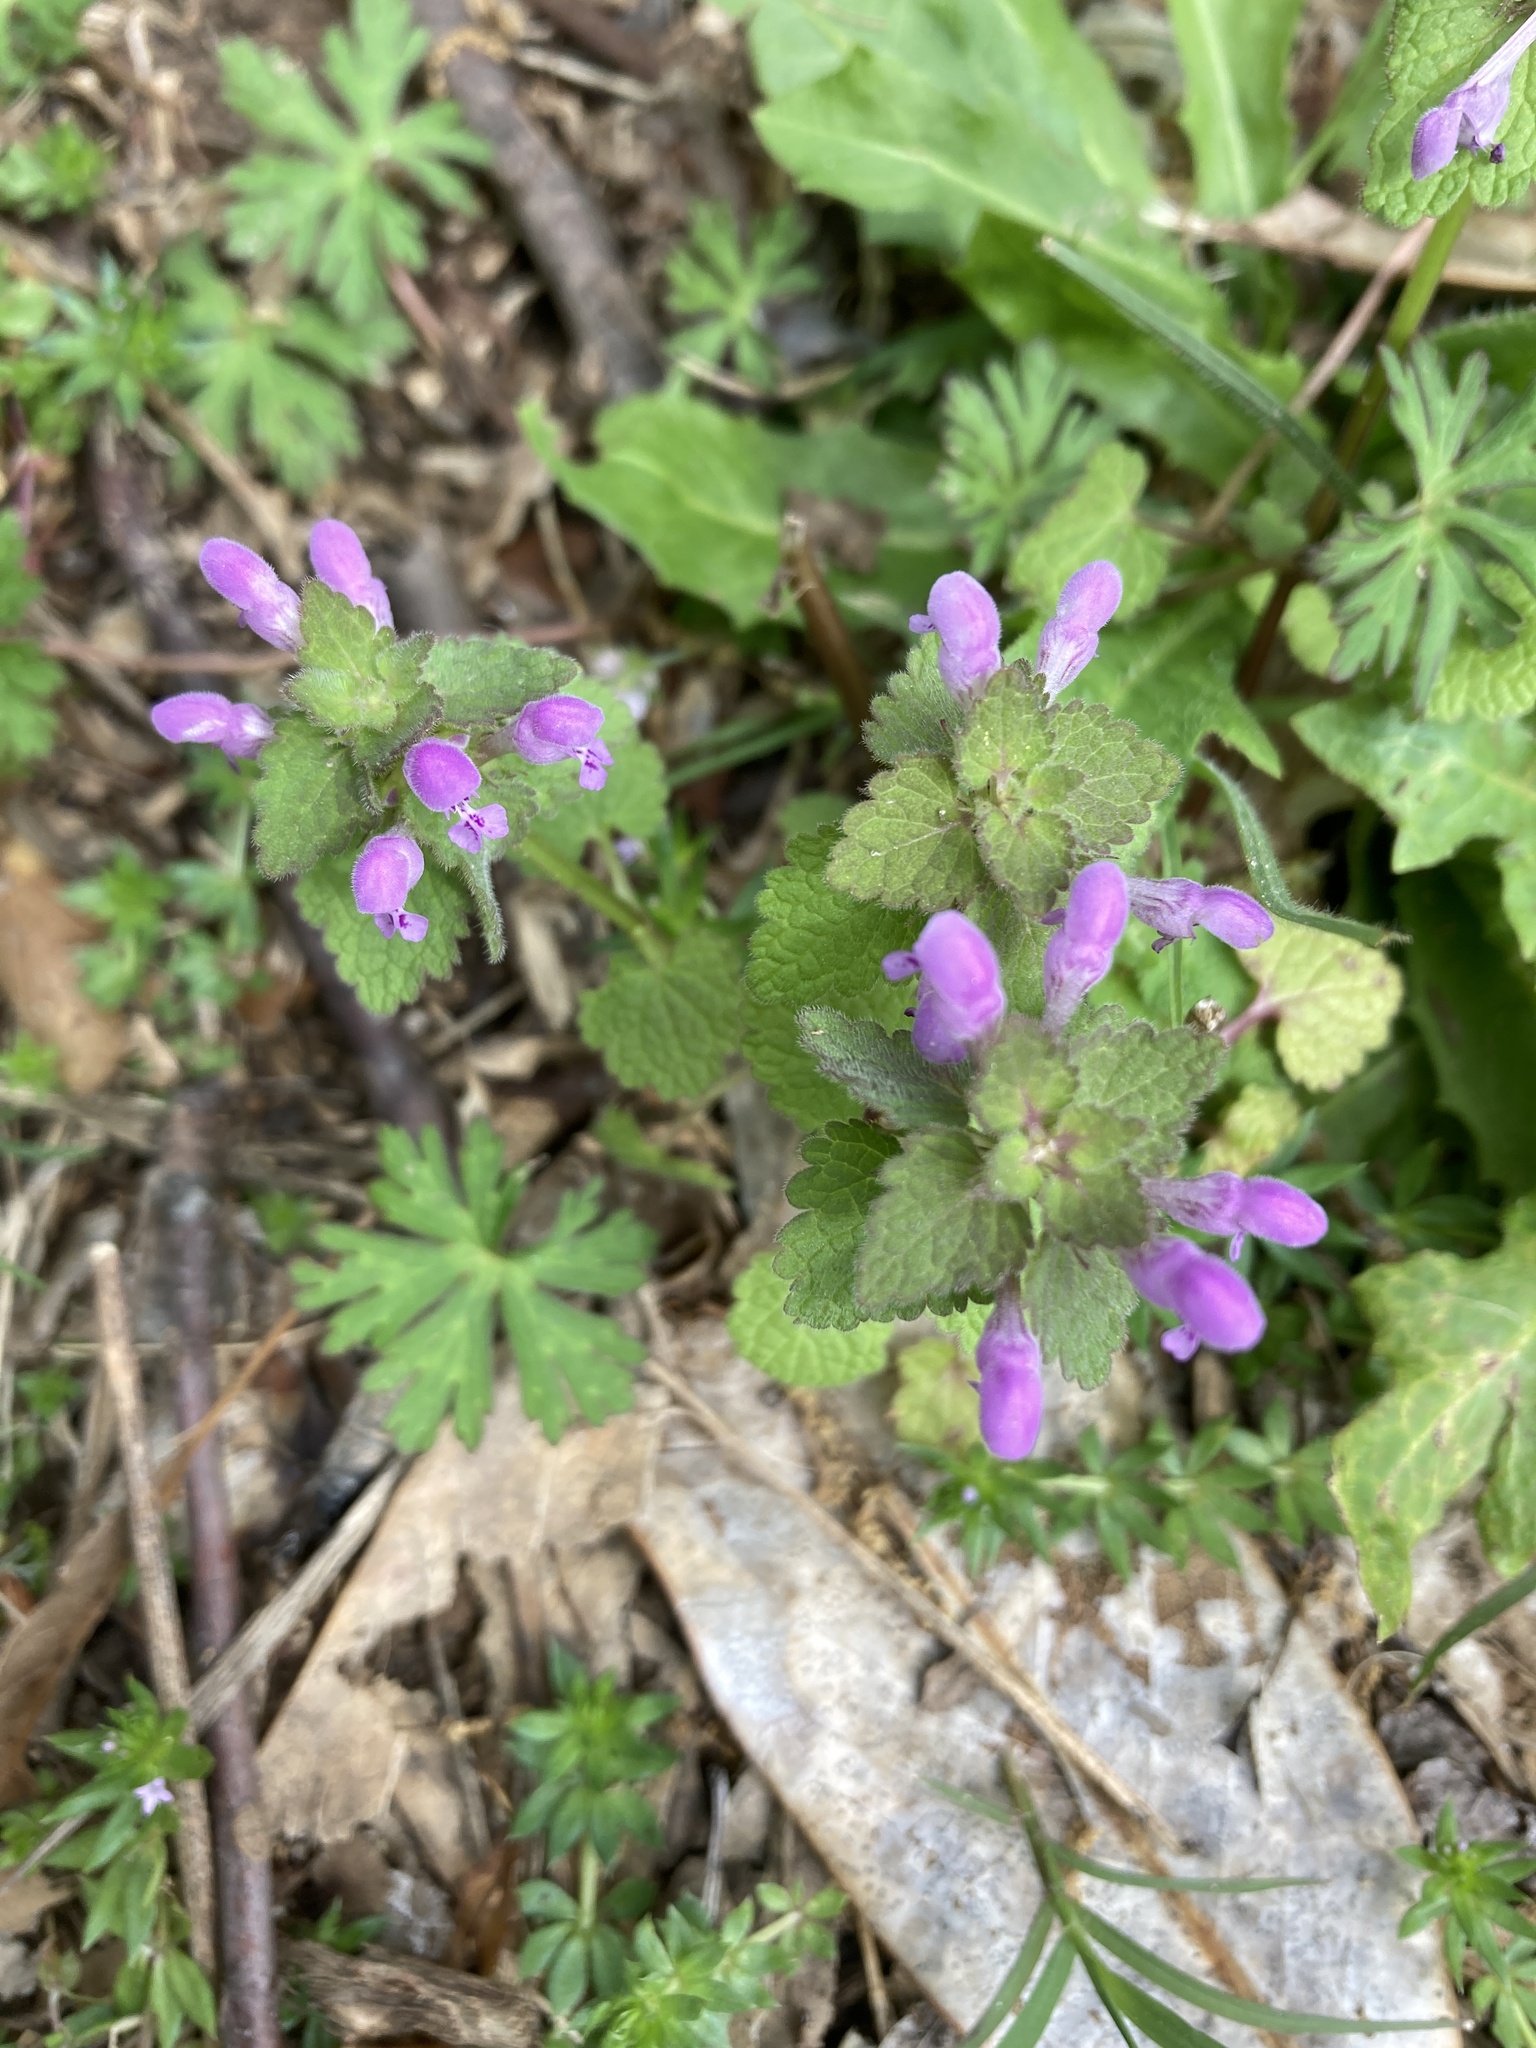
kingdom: Plantae
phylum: Tracheophyta
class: Magnoliopsida
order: Lamiales
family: Lamiaceae
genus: Lamium
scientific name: Lamium purpureum
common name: Red dead-nettle
